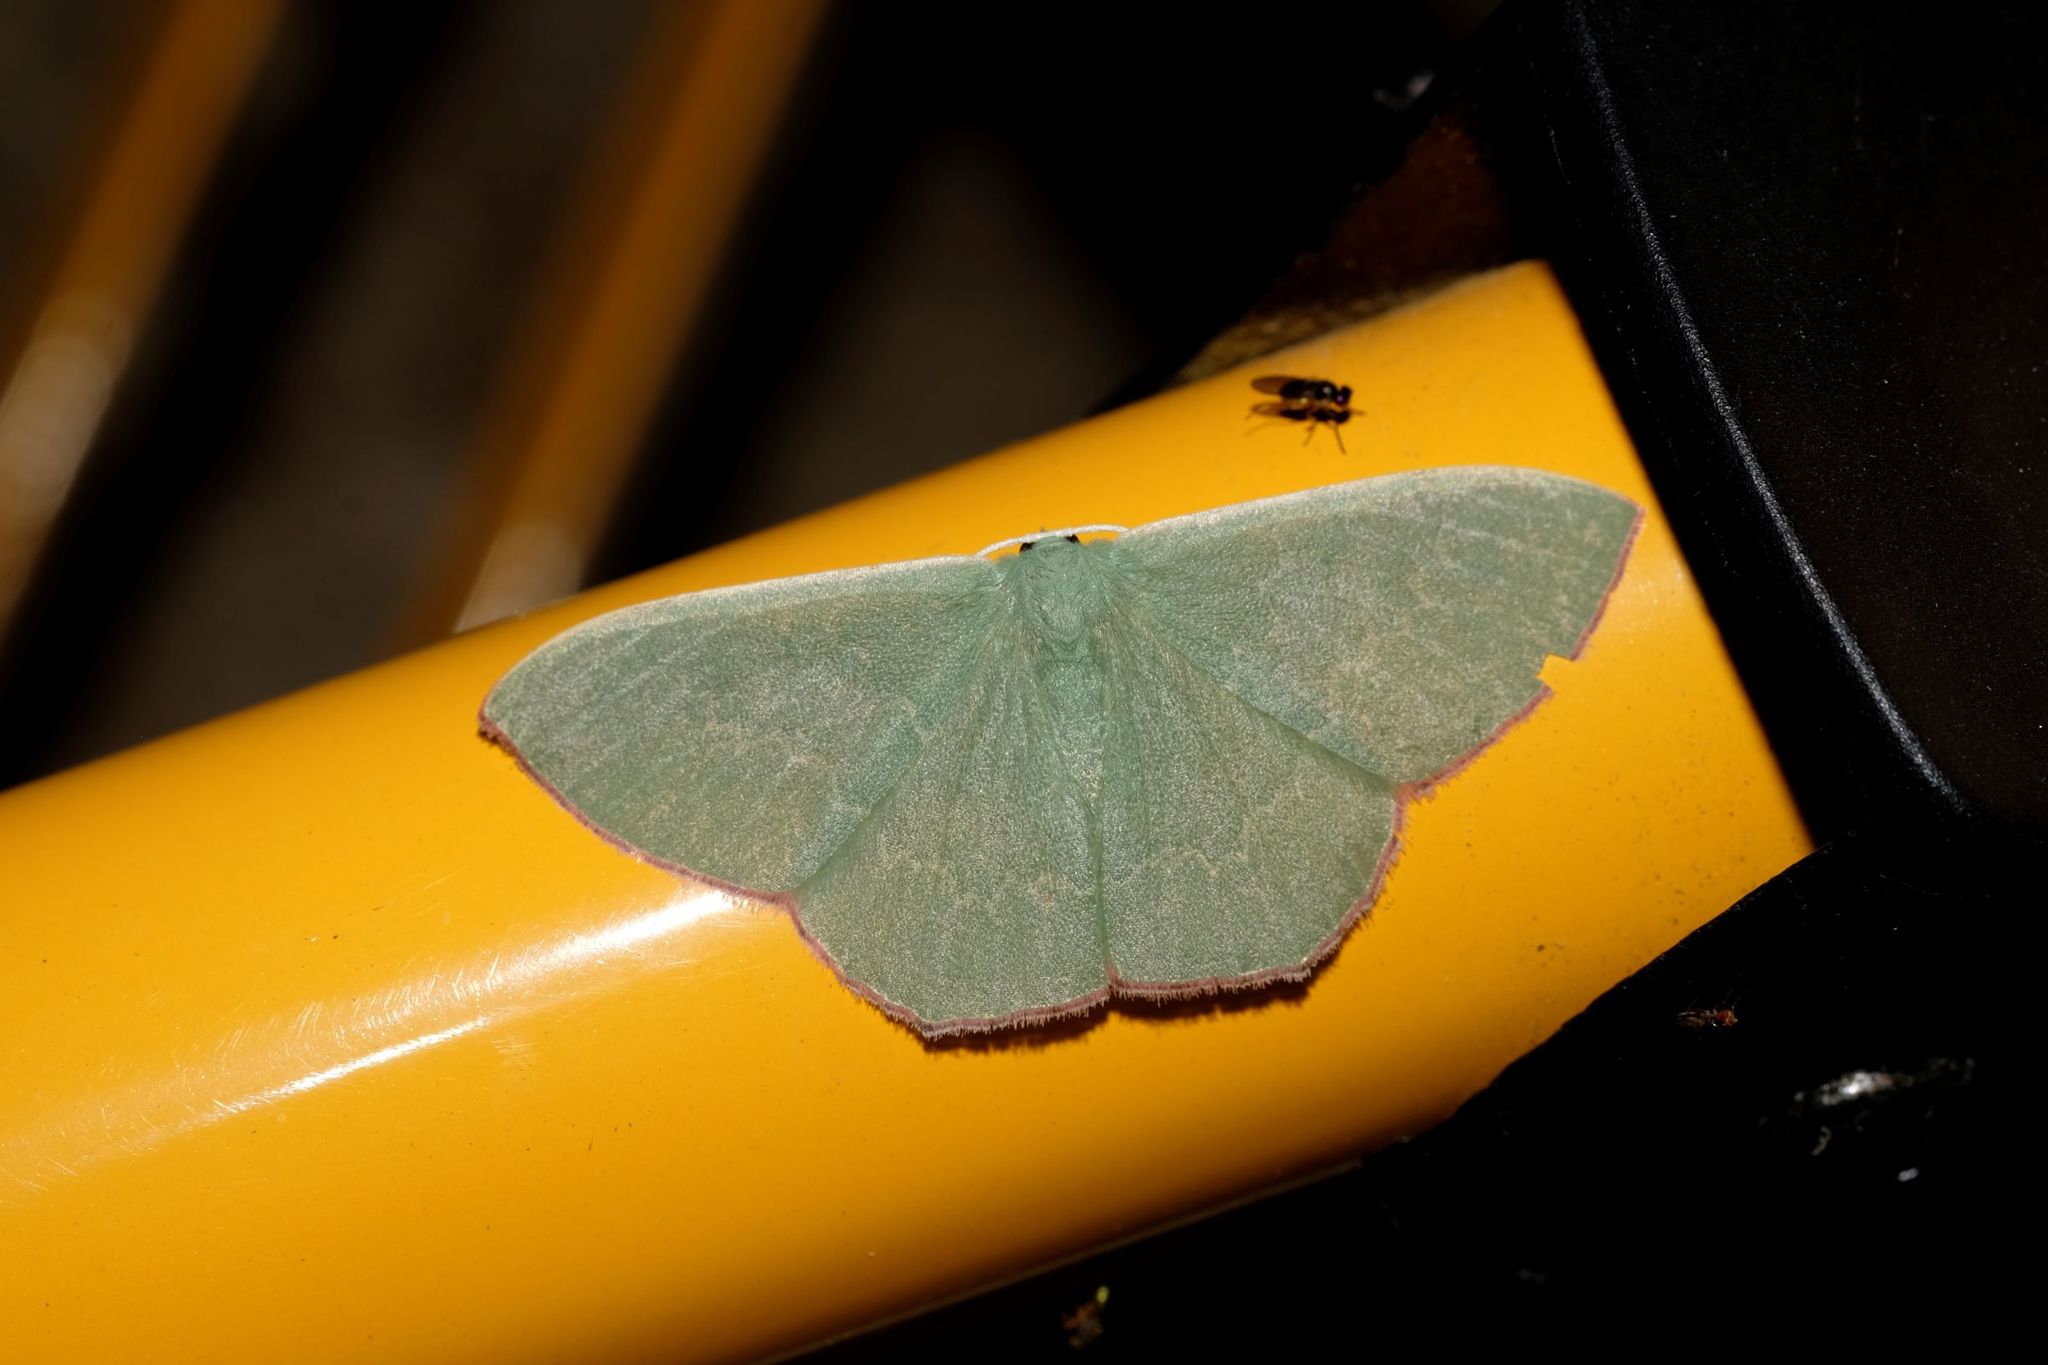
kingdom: Animalia
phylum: Arthropoda
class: Insecta
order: Lepidoptera
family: Geometridae
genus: Prasinocyma
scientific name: Prasinocyma semicrocea
